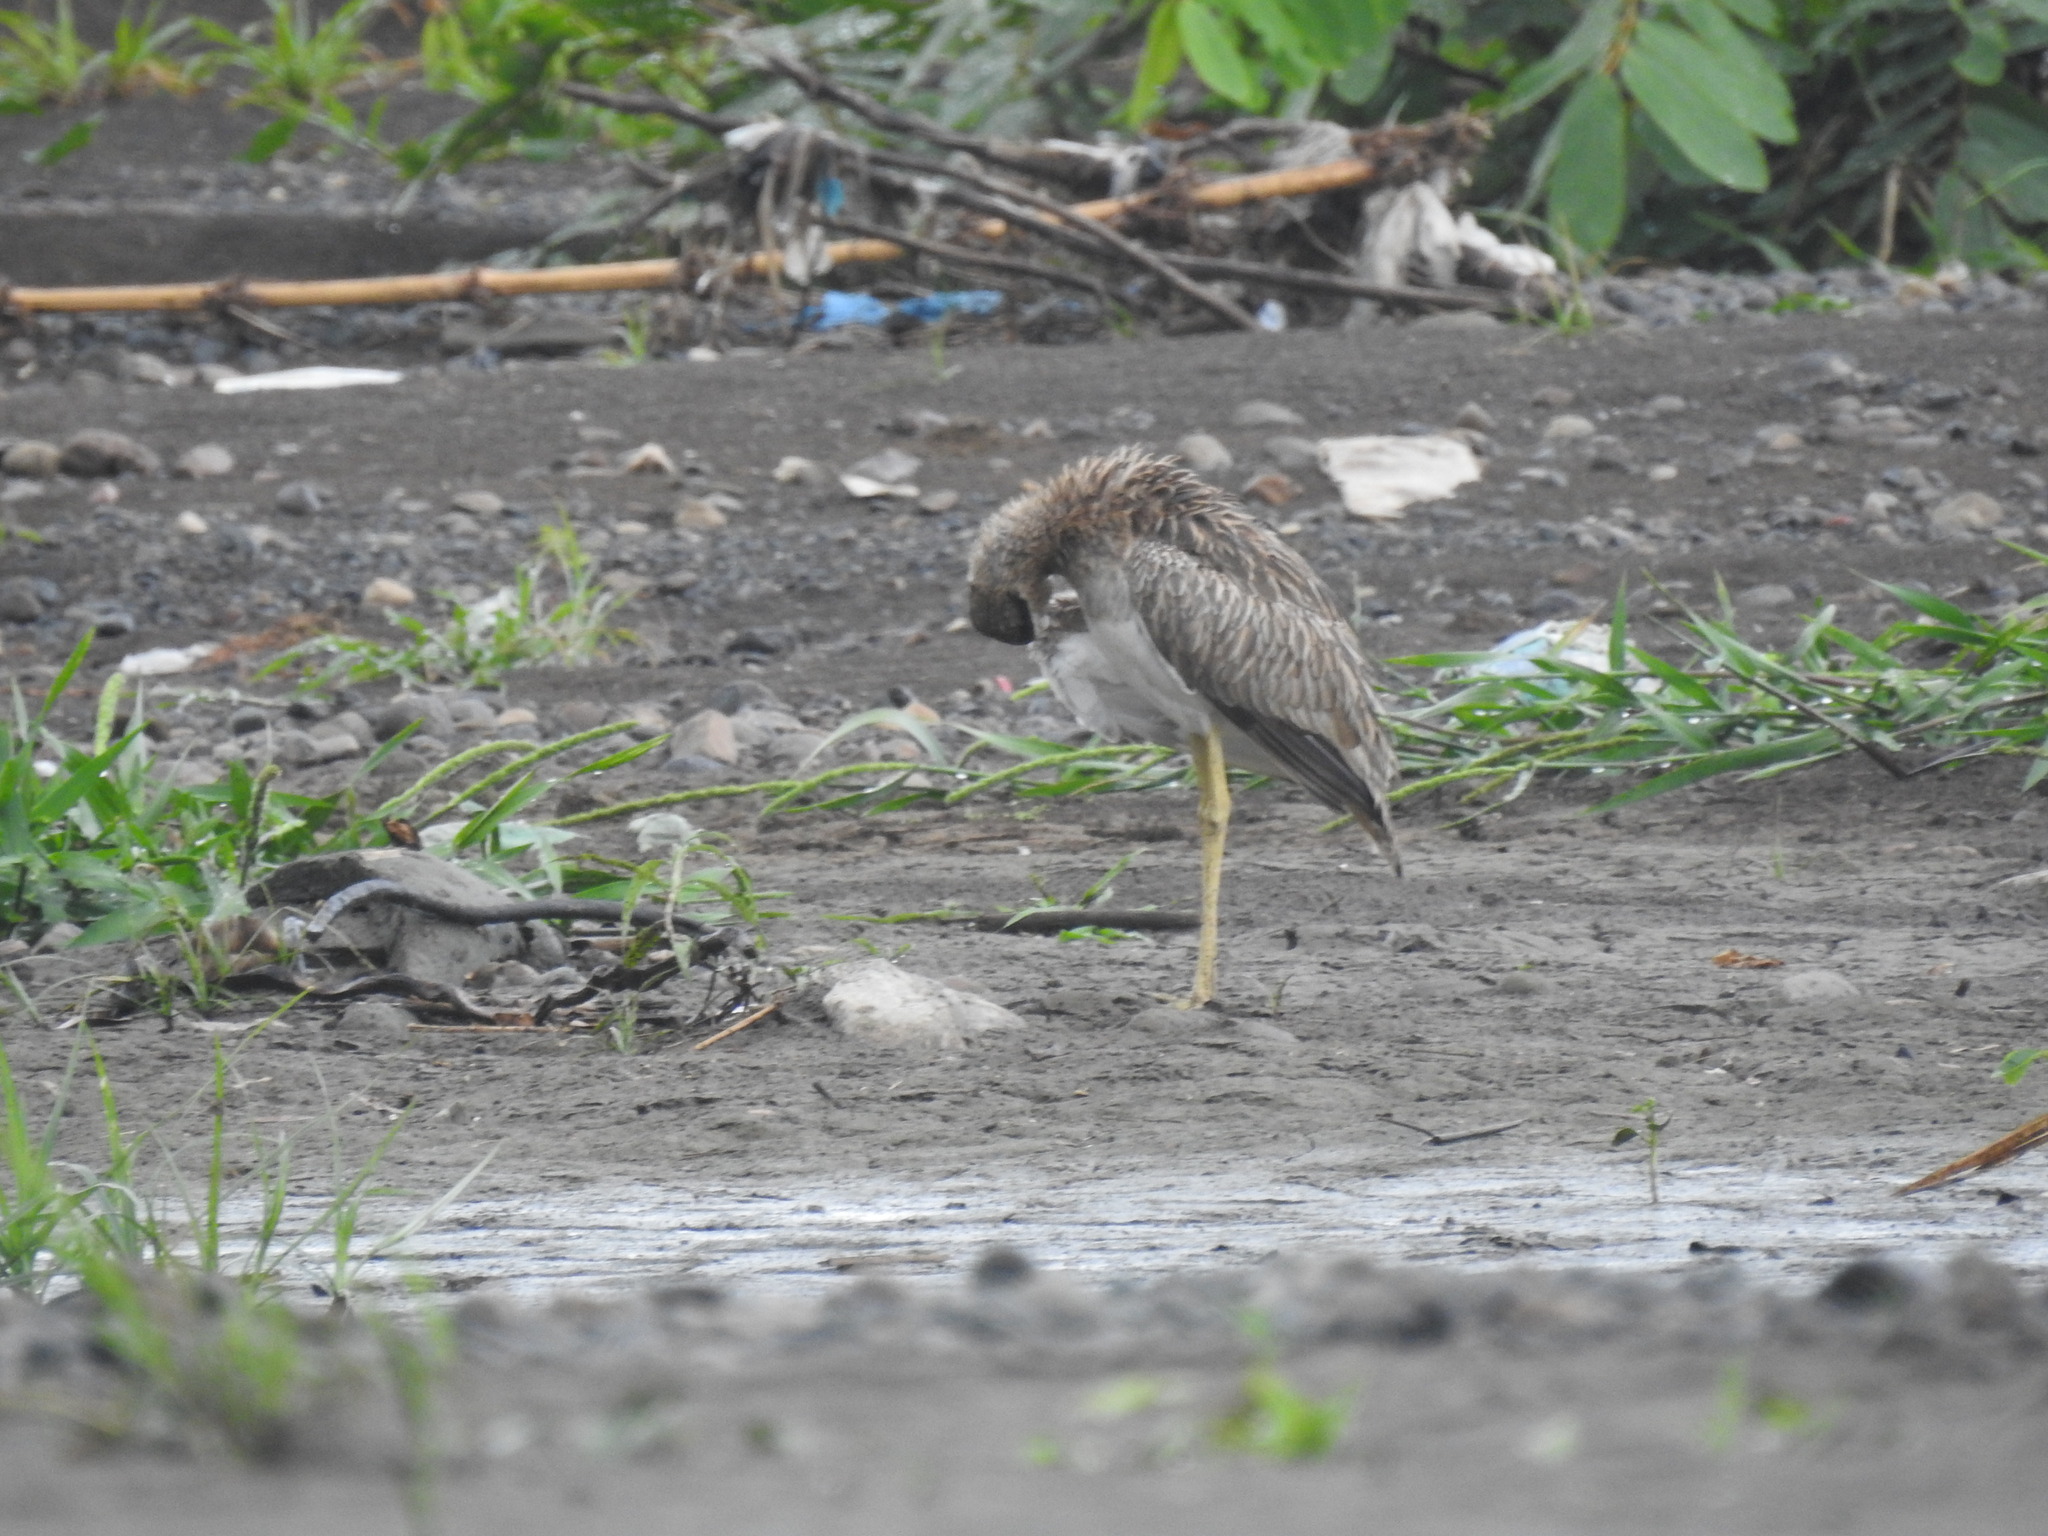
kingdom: Animalia
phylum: Chordata
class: Aves
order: Charadriiformes
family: Burhinidae
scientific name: Burhinidae
